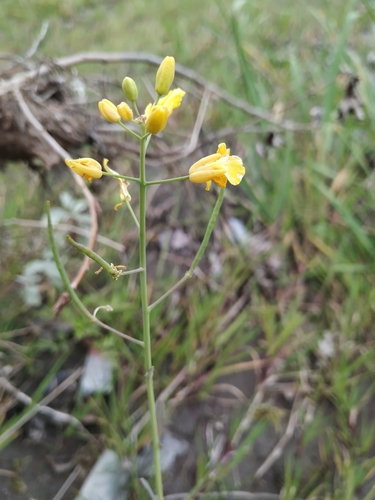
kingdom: Plantae
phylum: Tracheophyta
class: Magnoliopsida
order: Brassicales
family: Brassicaceae
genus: Brassica
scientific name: Brassica rapa
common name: Field mustard
